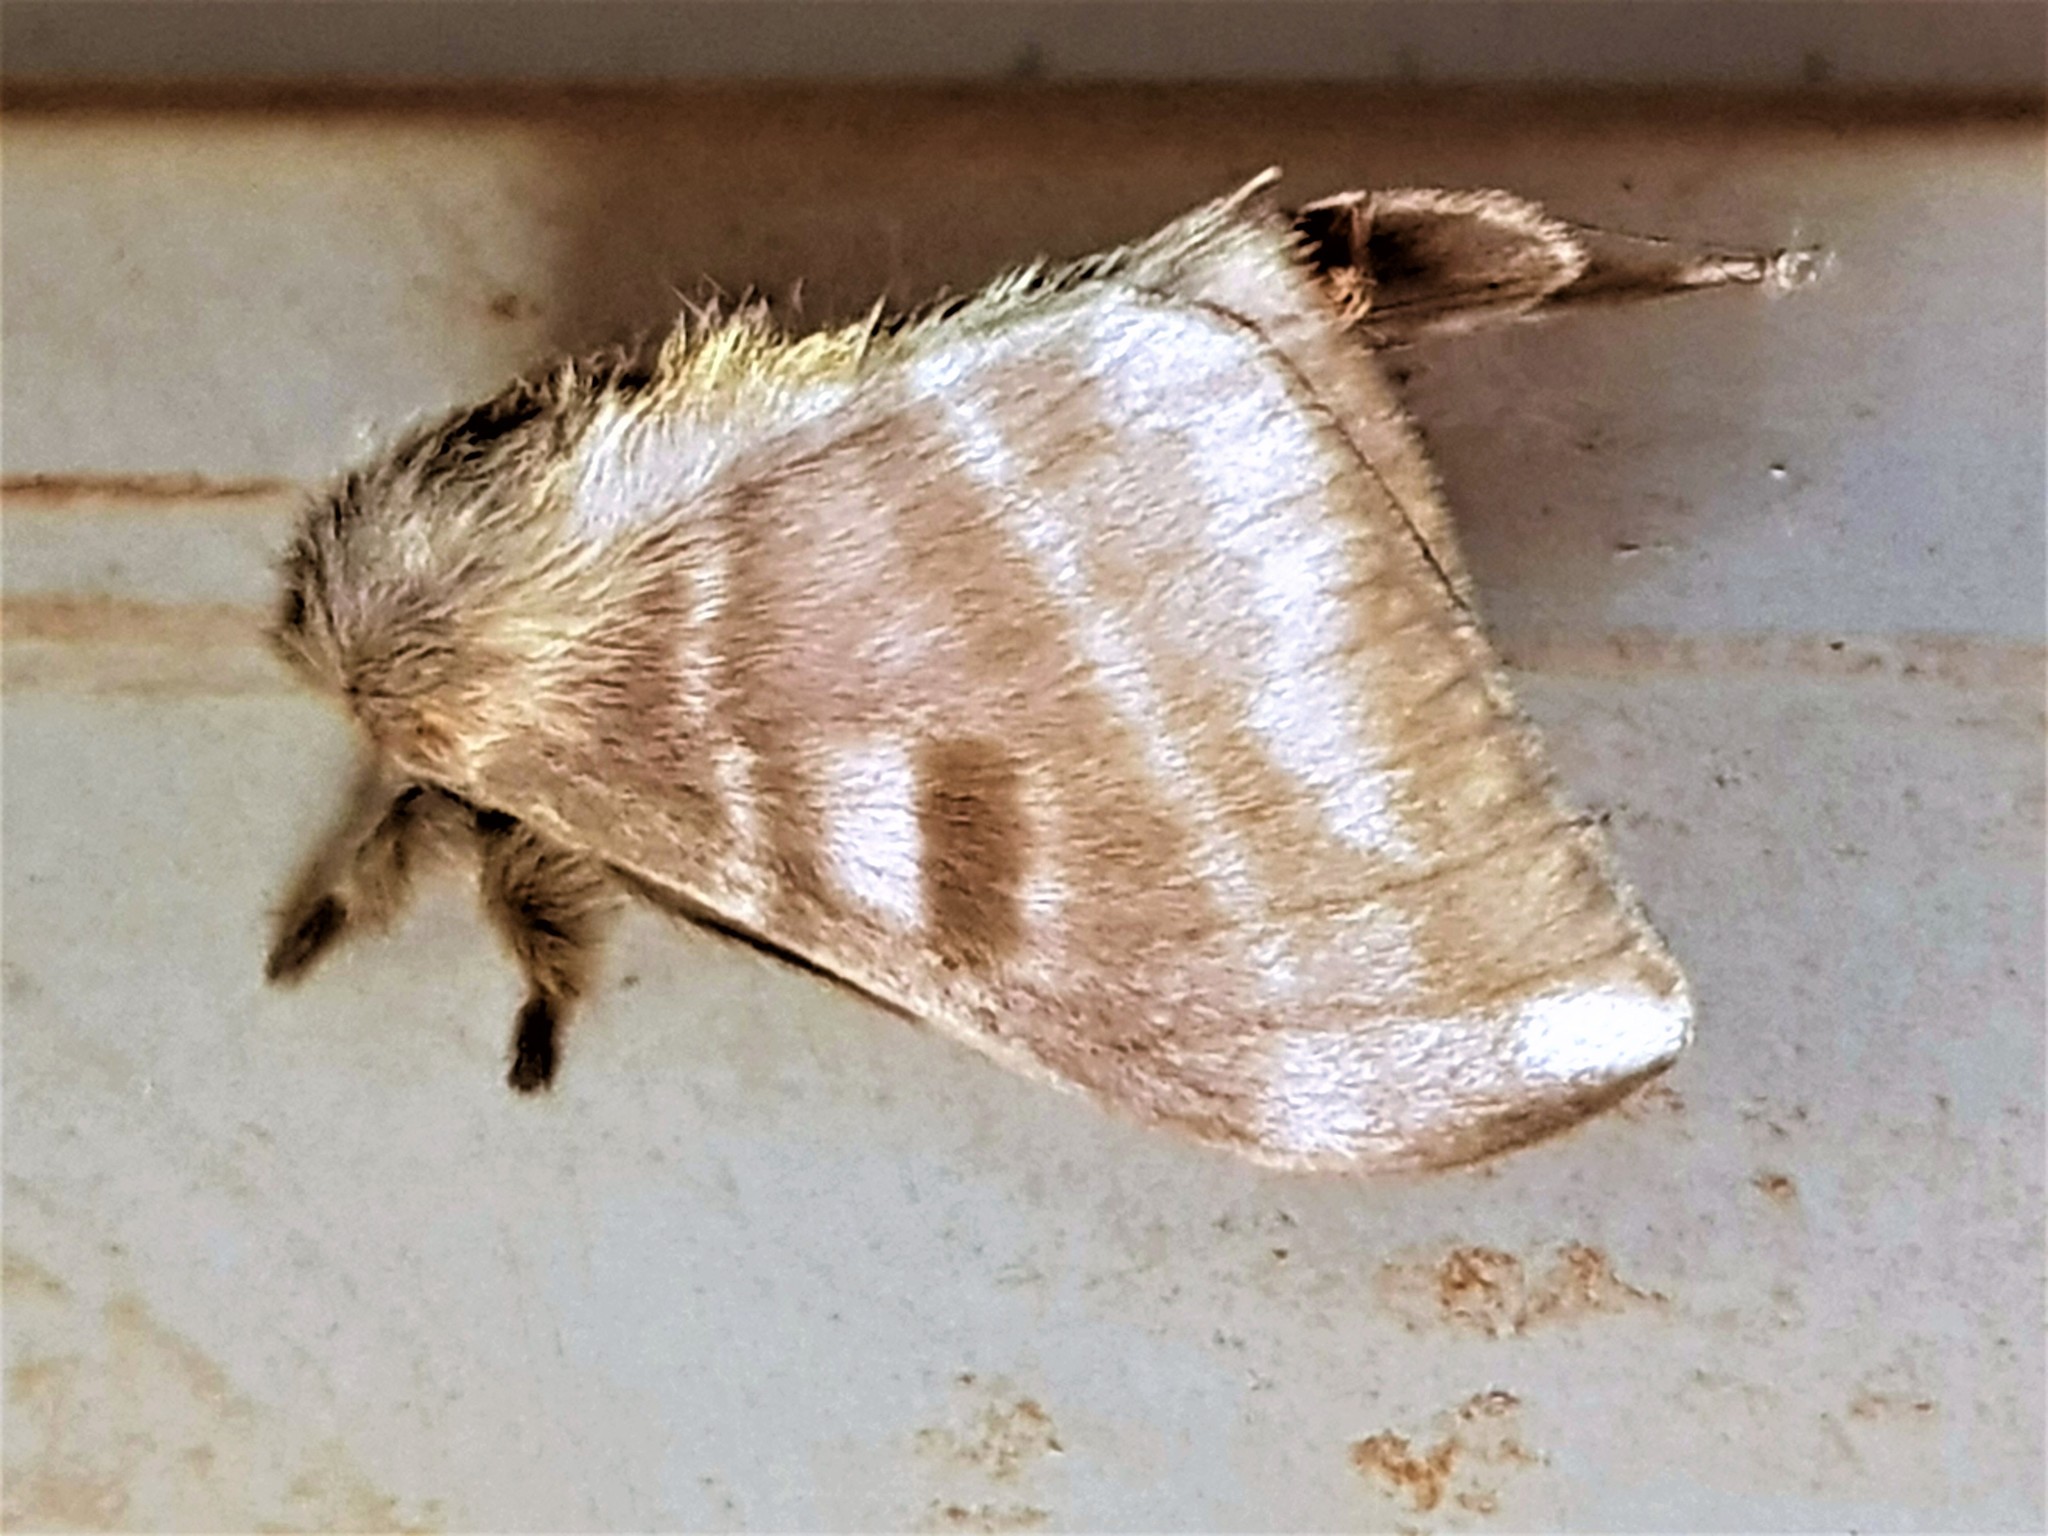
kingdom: Animalia
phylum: Arthropoda
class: Insecta
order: Lepidoptera
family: Saturniidae
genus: Hylesia
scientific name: Hylesia canitia
